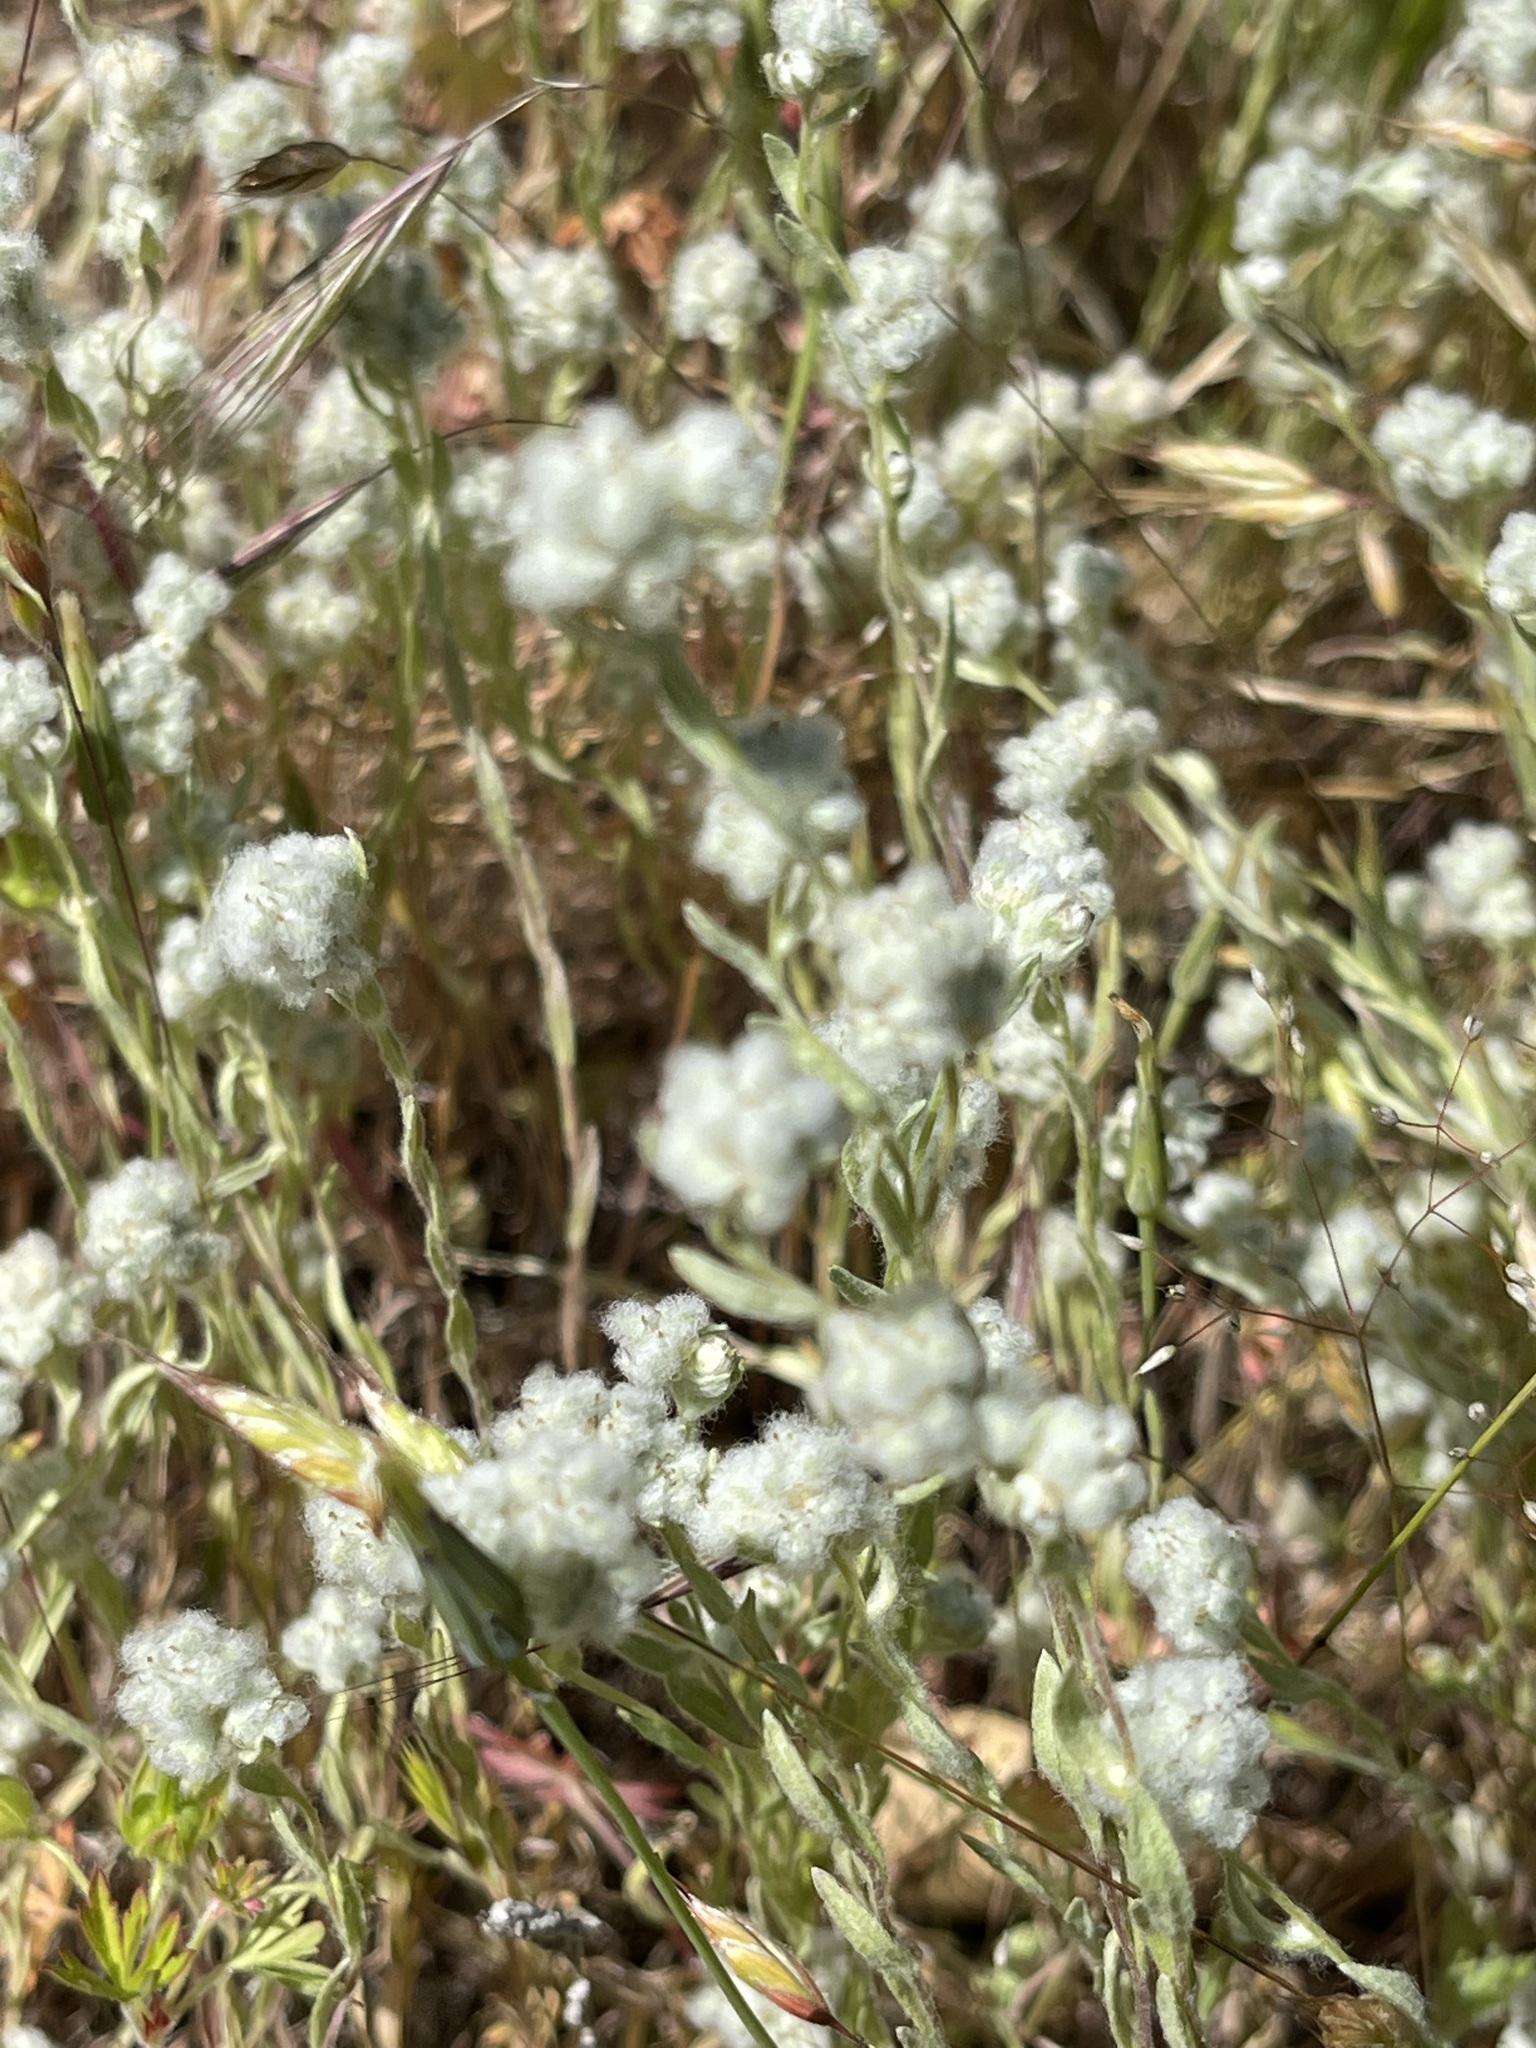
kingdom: Plantae
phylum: Tracheophyta
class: Magnoliopsida
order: Asterales
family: Asteraceae
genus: Bombycilaena
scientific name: Bombycilaena californica
